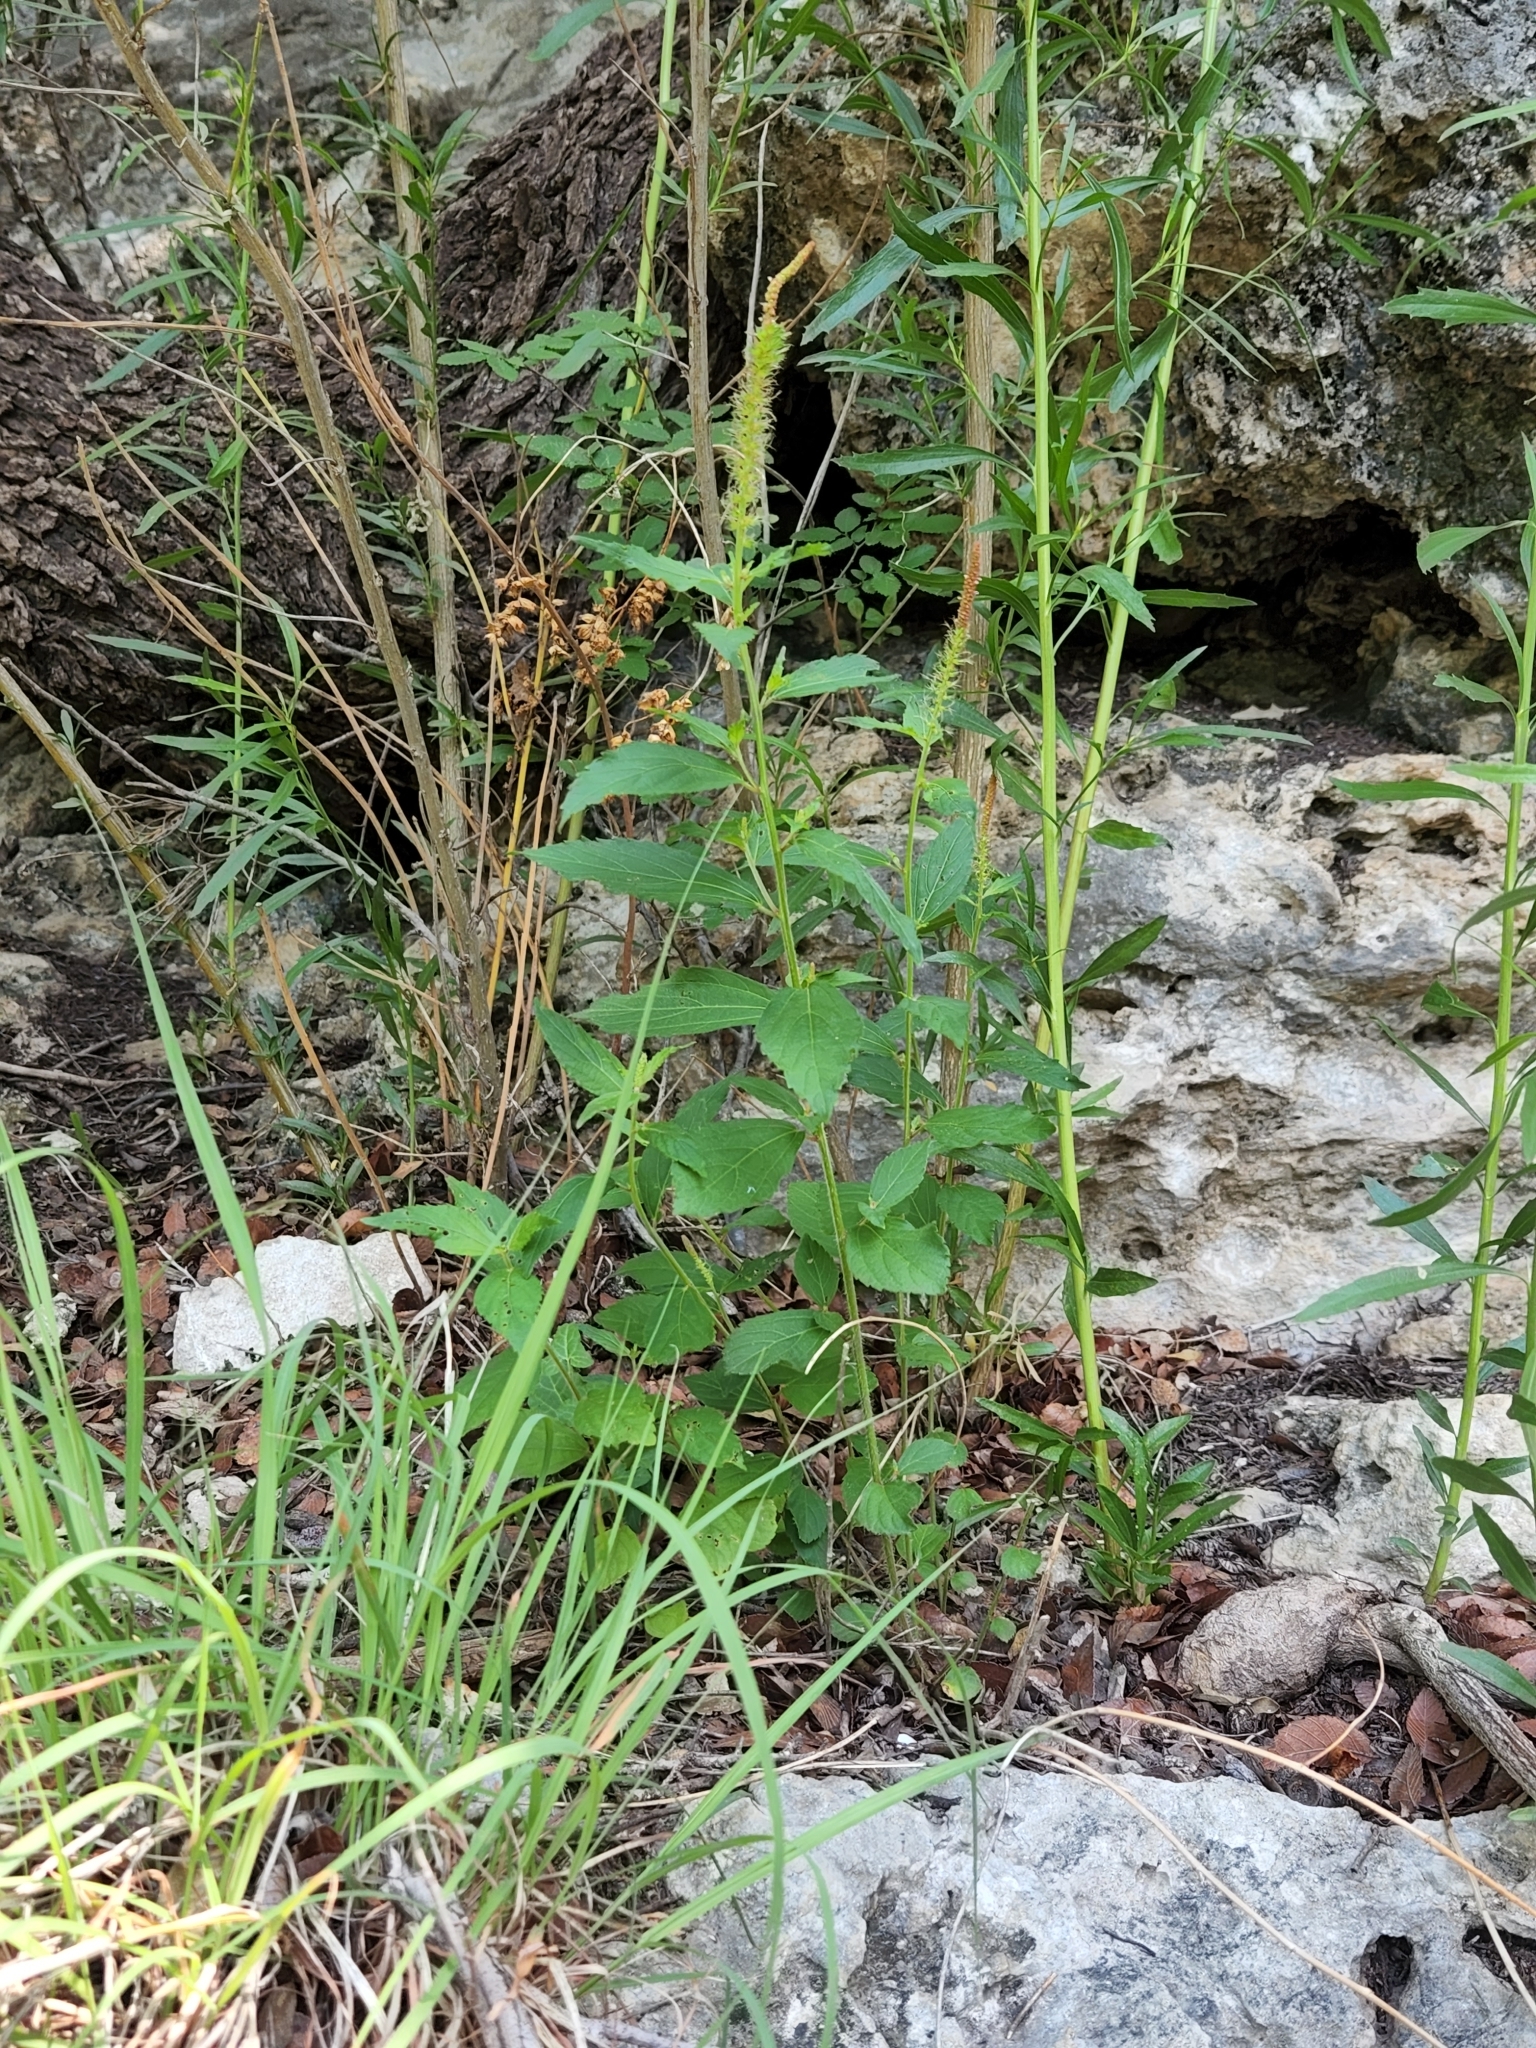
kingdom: Plantae
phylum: Tracheophyta
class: Magnoliopsida
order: Malpighiales
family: Euphorbiaceae
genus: Acalypha
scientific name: Acalypha phleoides
